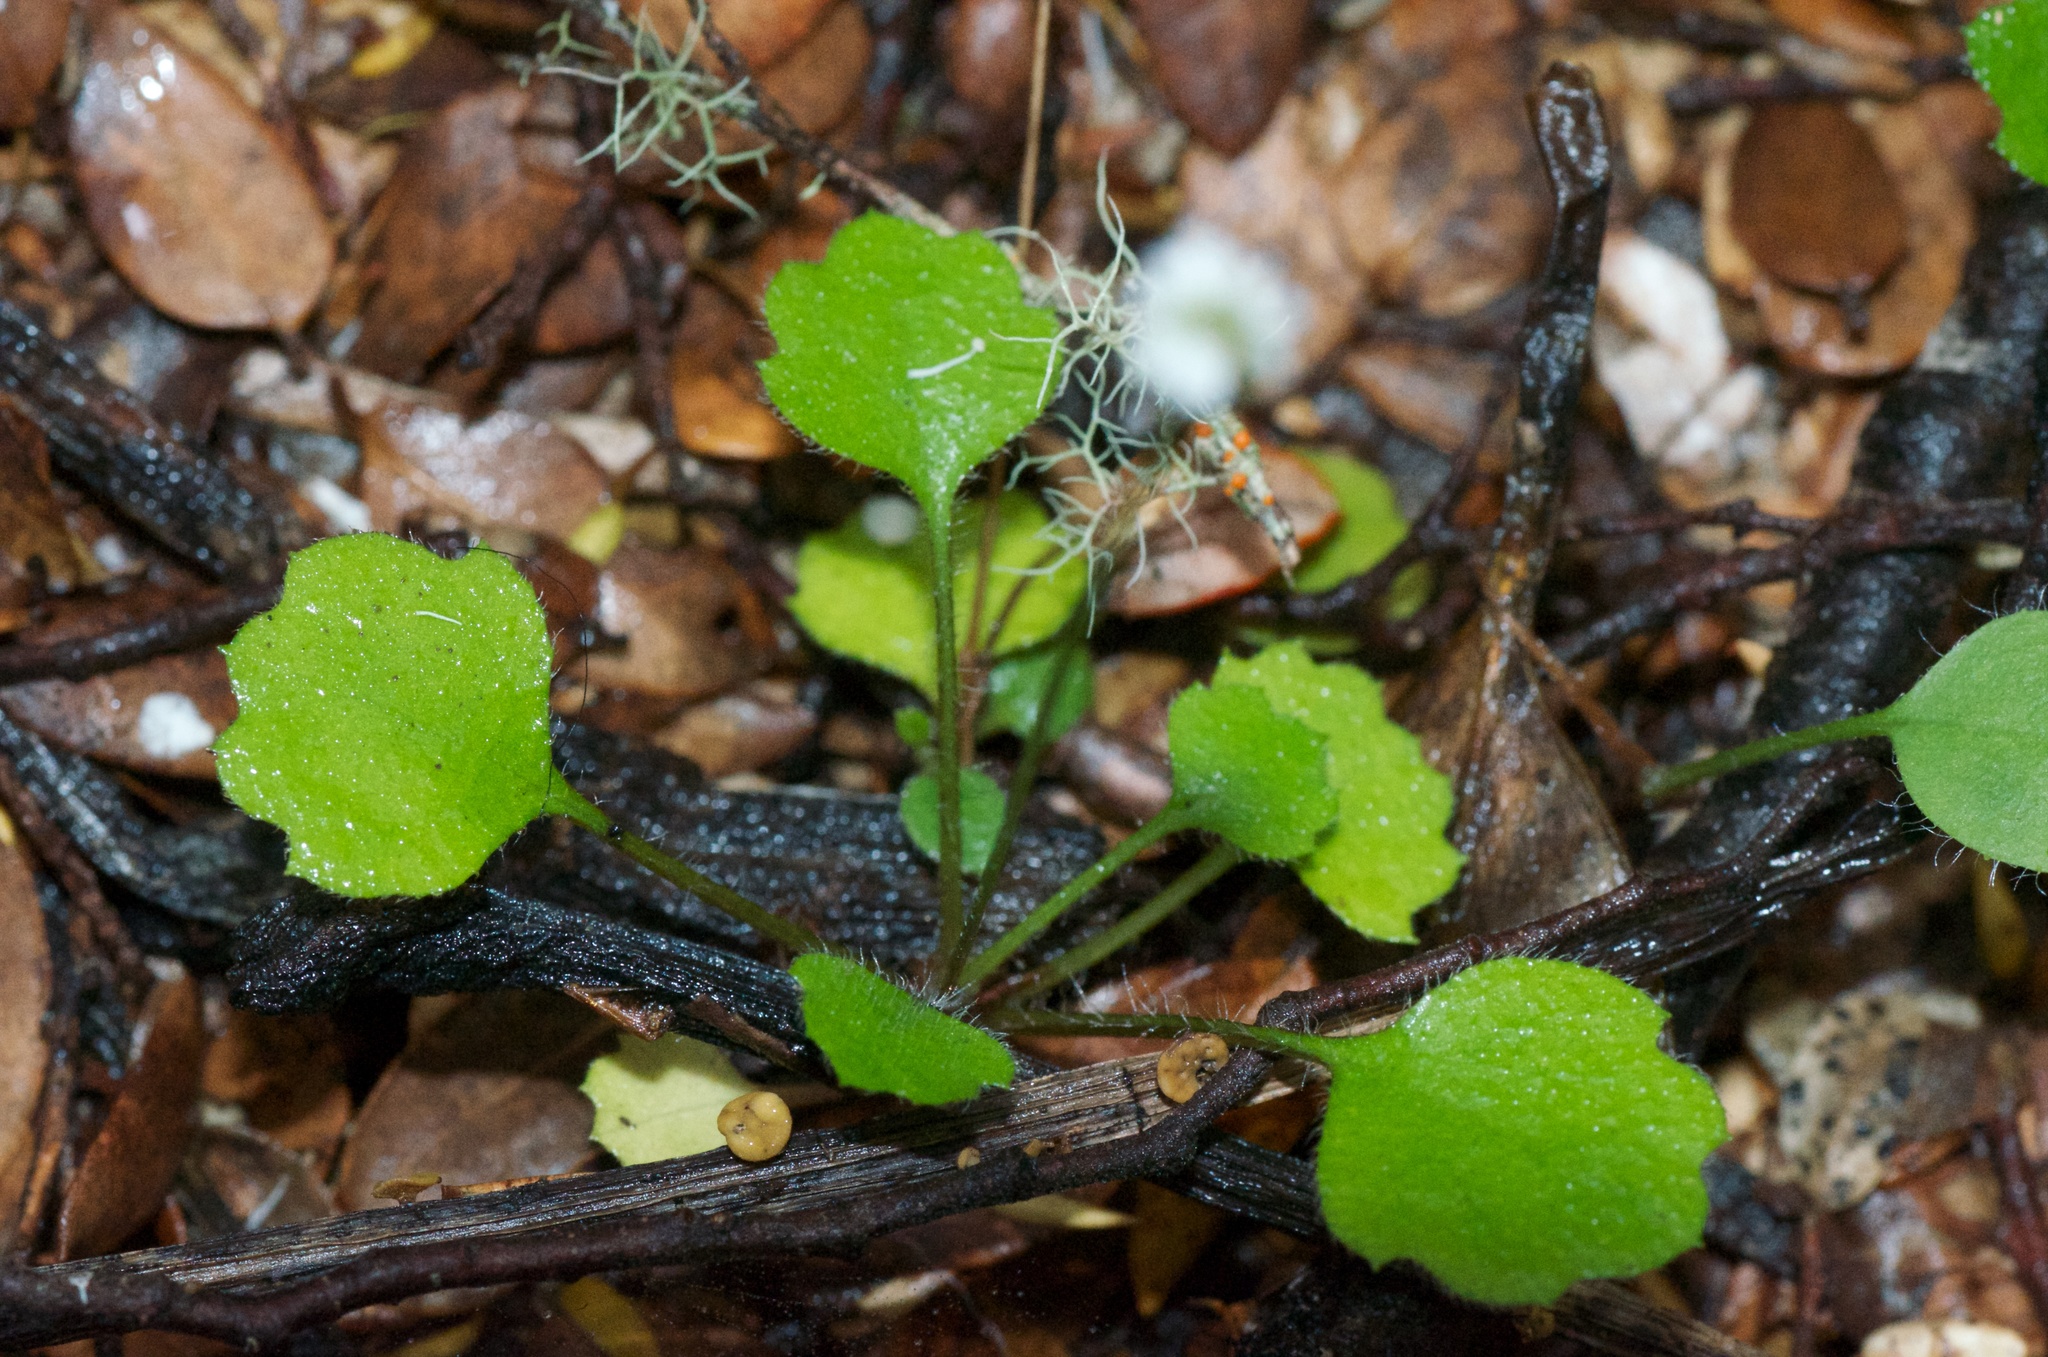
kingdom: Plantae
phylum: Tracheophyta
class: Magnoliopsida
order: Asterales
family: Asteraceae
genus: Lagenophora
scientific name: Lagenophora strangulata
